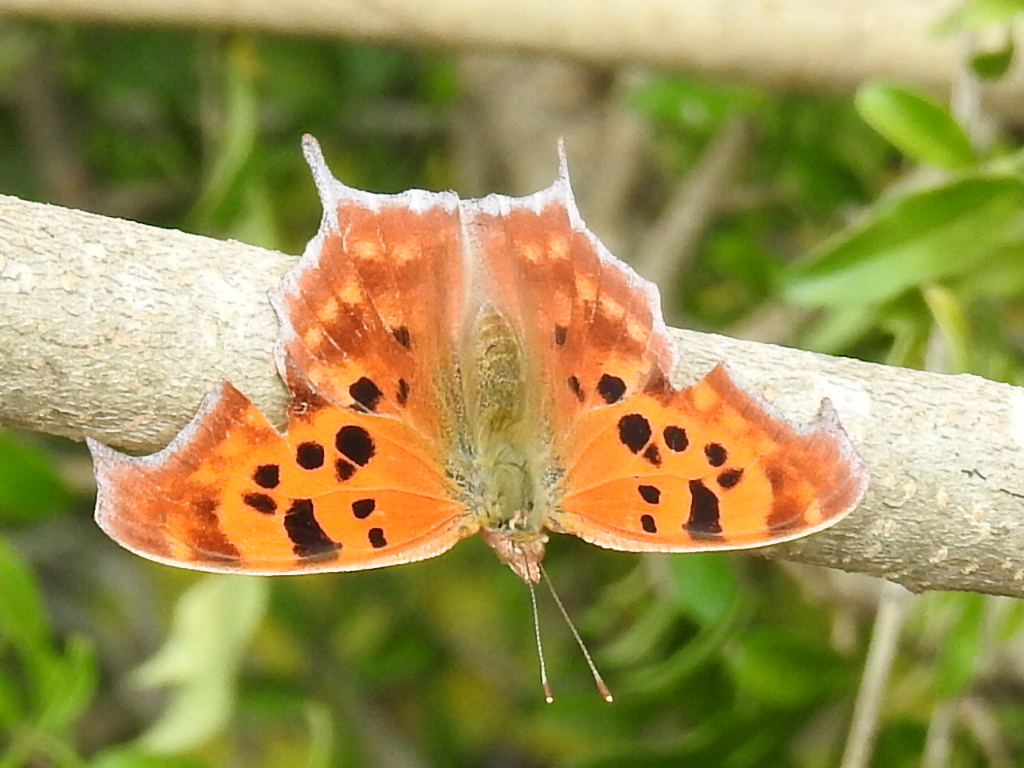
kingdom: Animalia
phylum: Arthropoda
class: Insecta
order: Lepidoptera
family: Nymphalidae
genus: Polygonia
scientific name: Polygonia interrogationis
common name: Question mark
